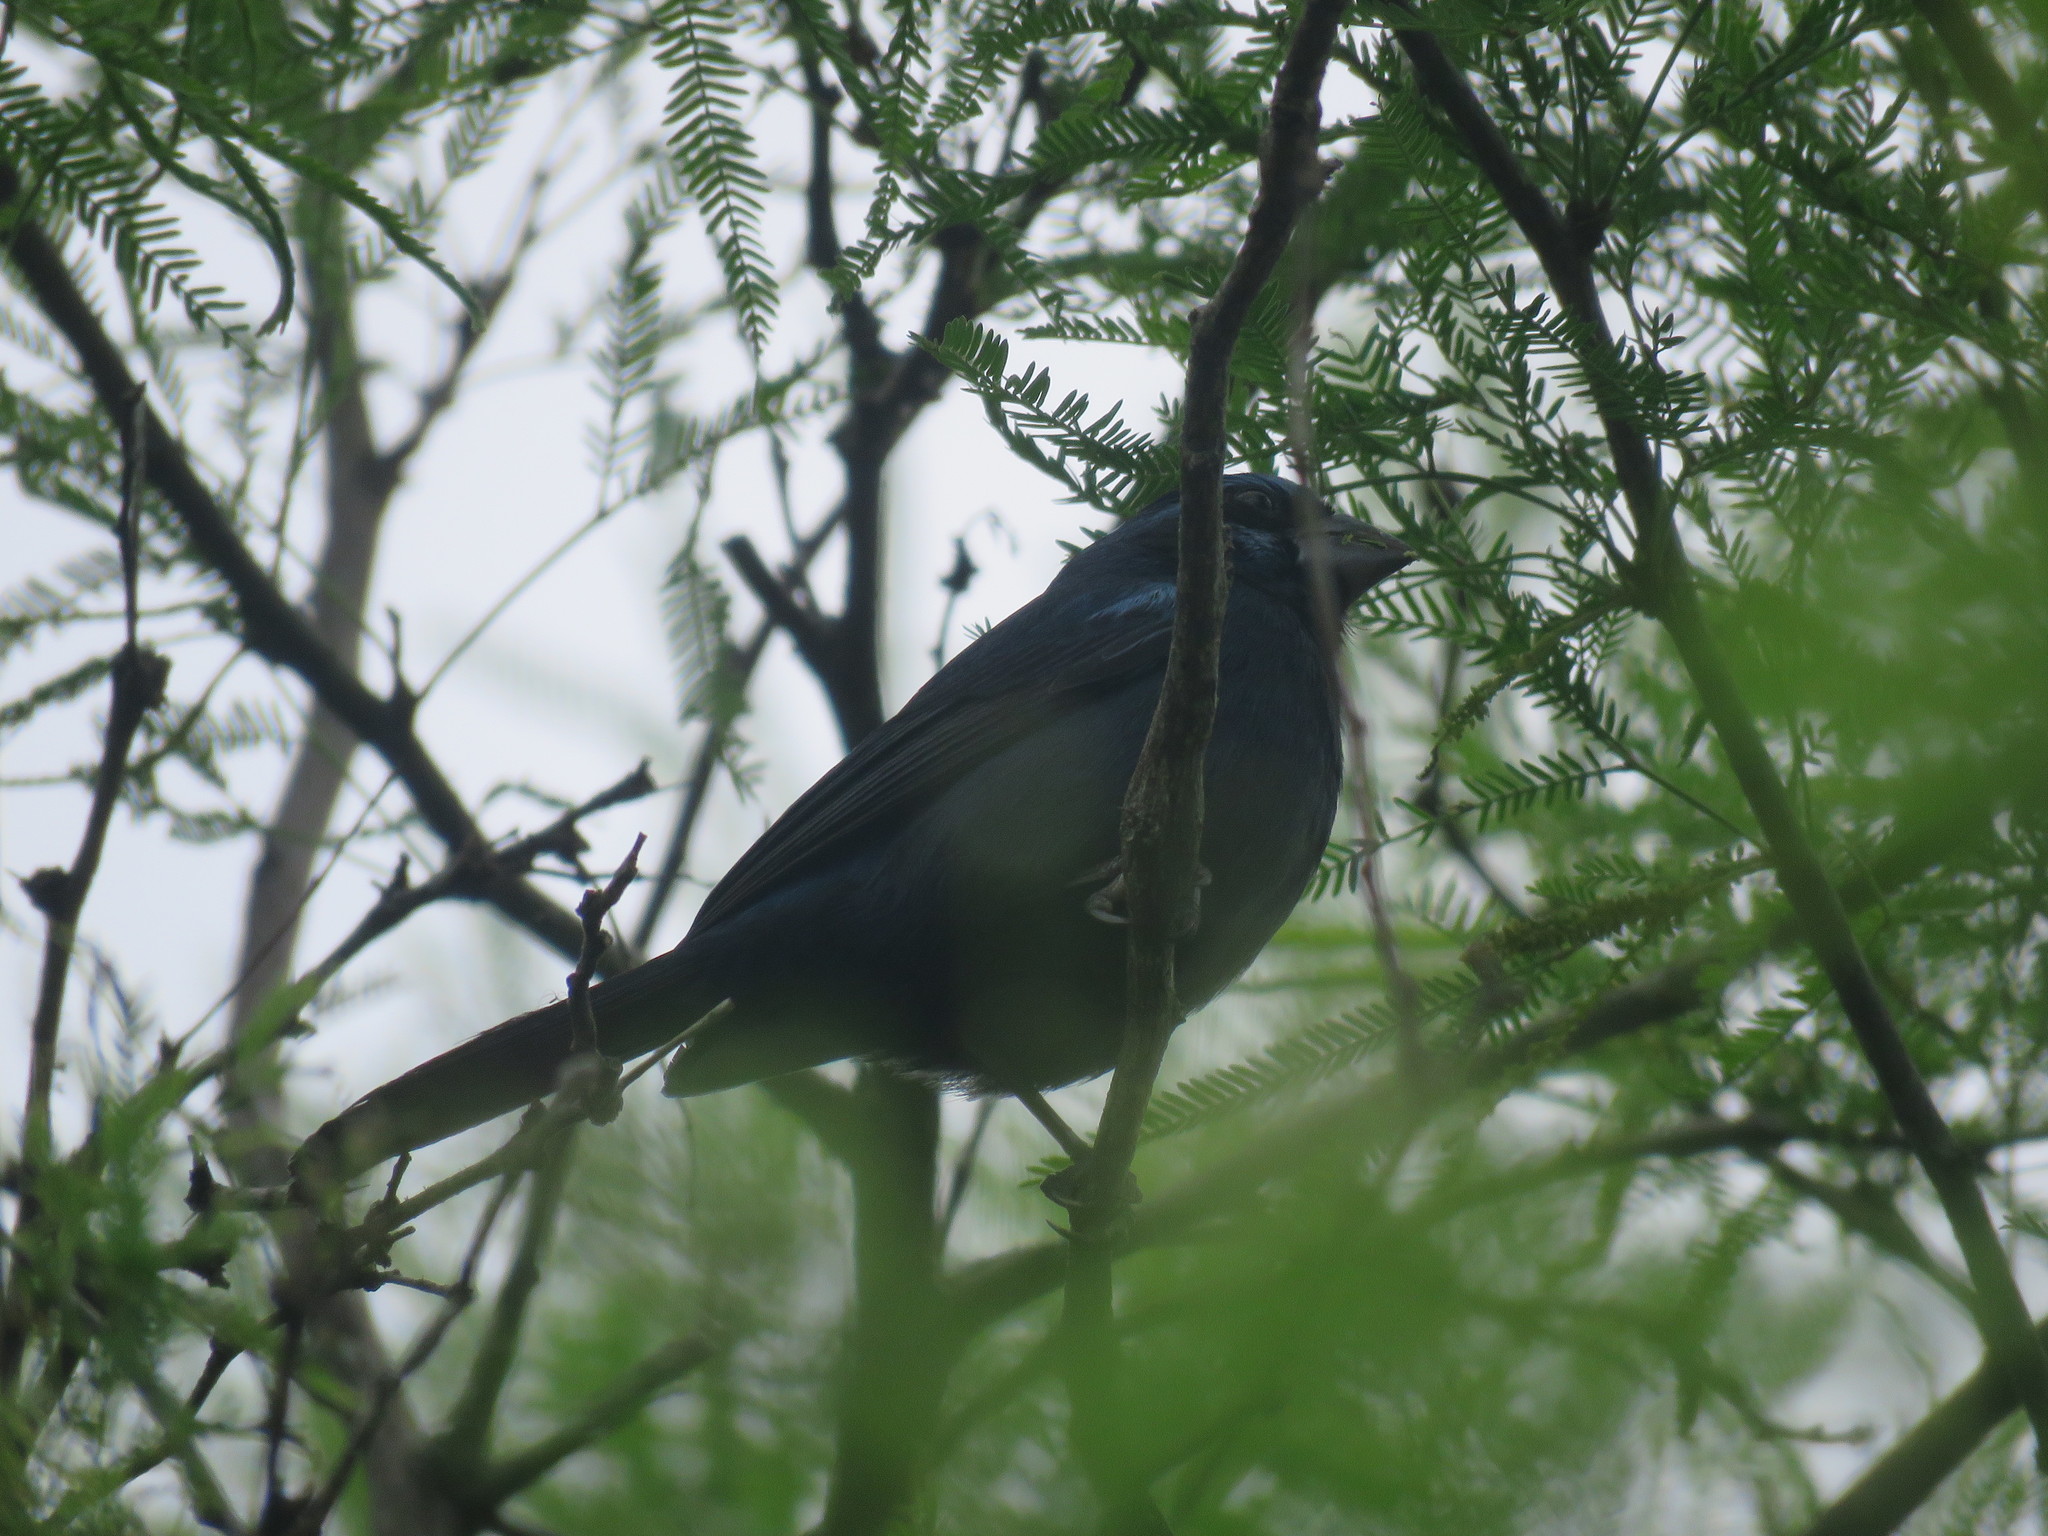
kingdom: Animalia
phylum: Chordata
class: Aves
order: Passeriformes
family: Cardinalidae
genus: Cyanoloxia
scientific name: Cyanoloxia brissonii
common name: Ultramarine grosbeak
